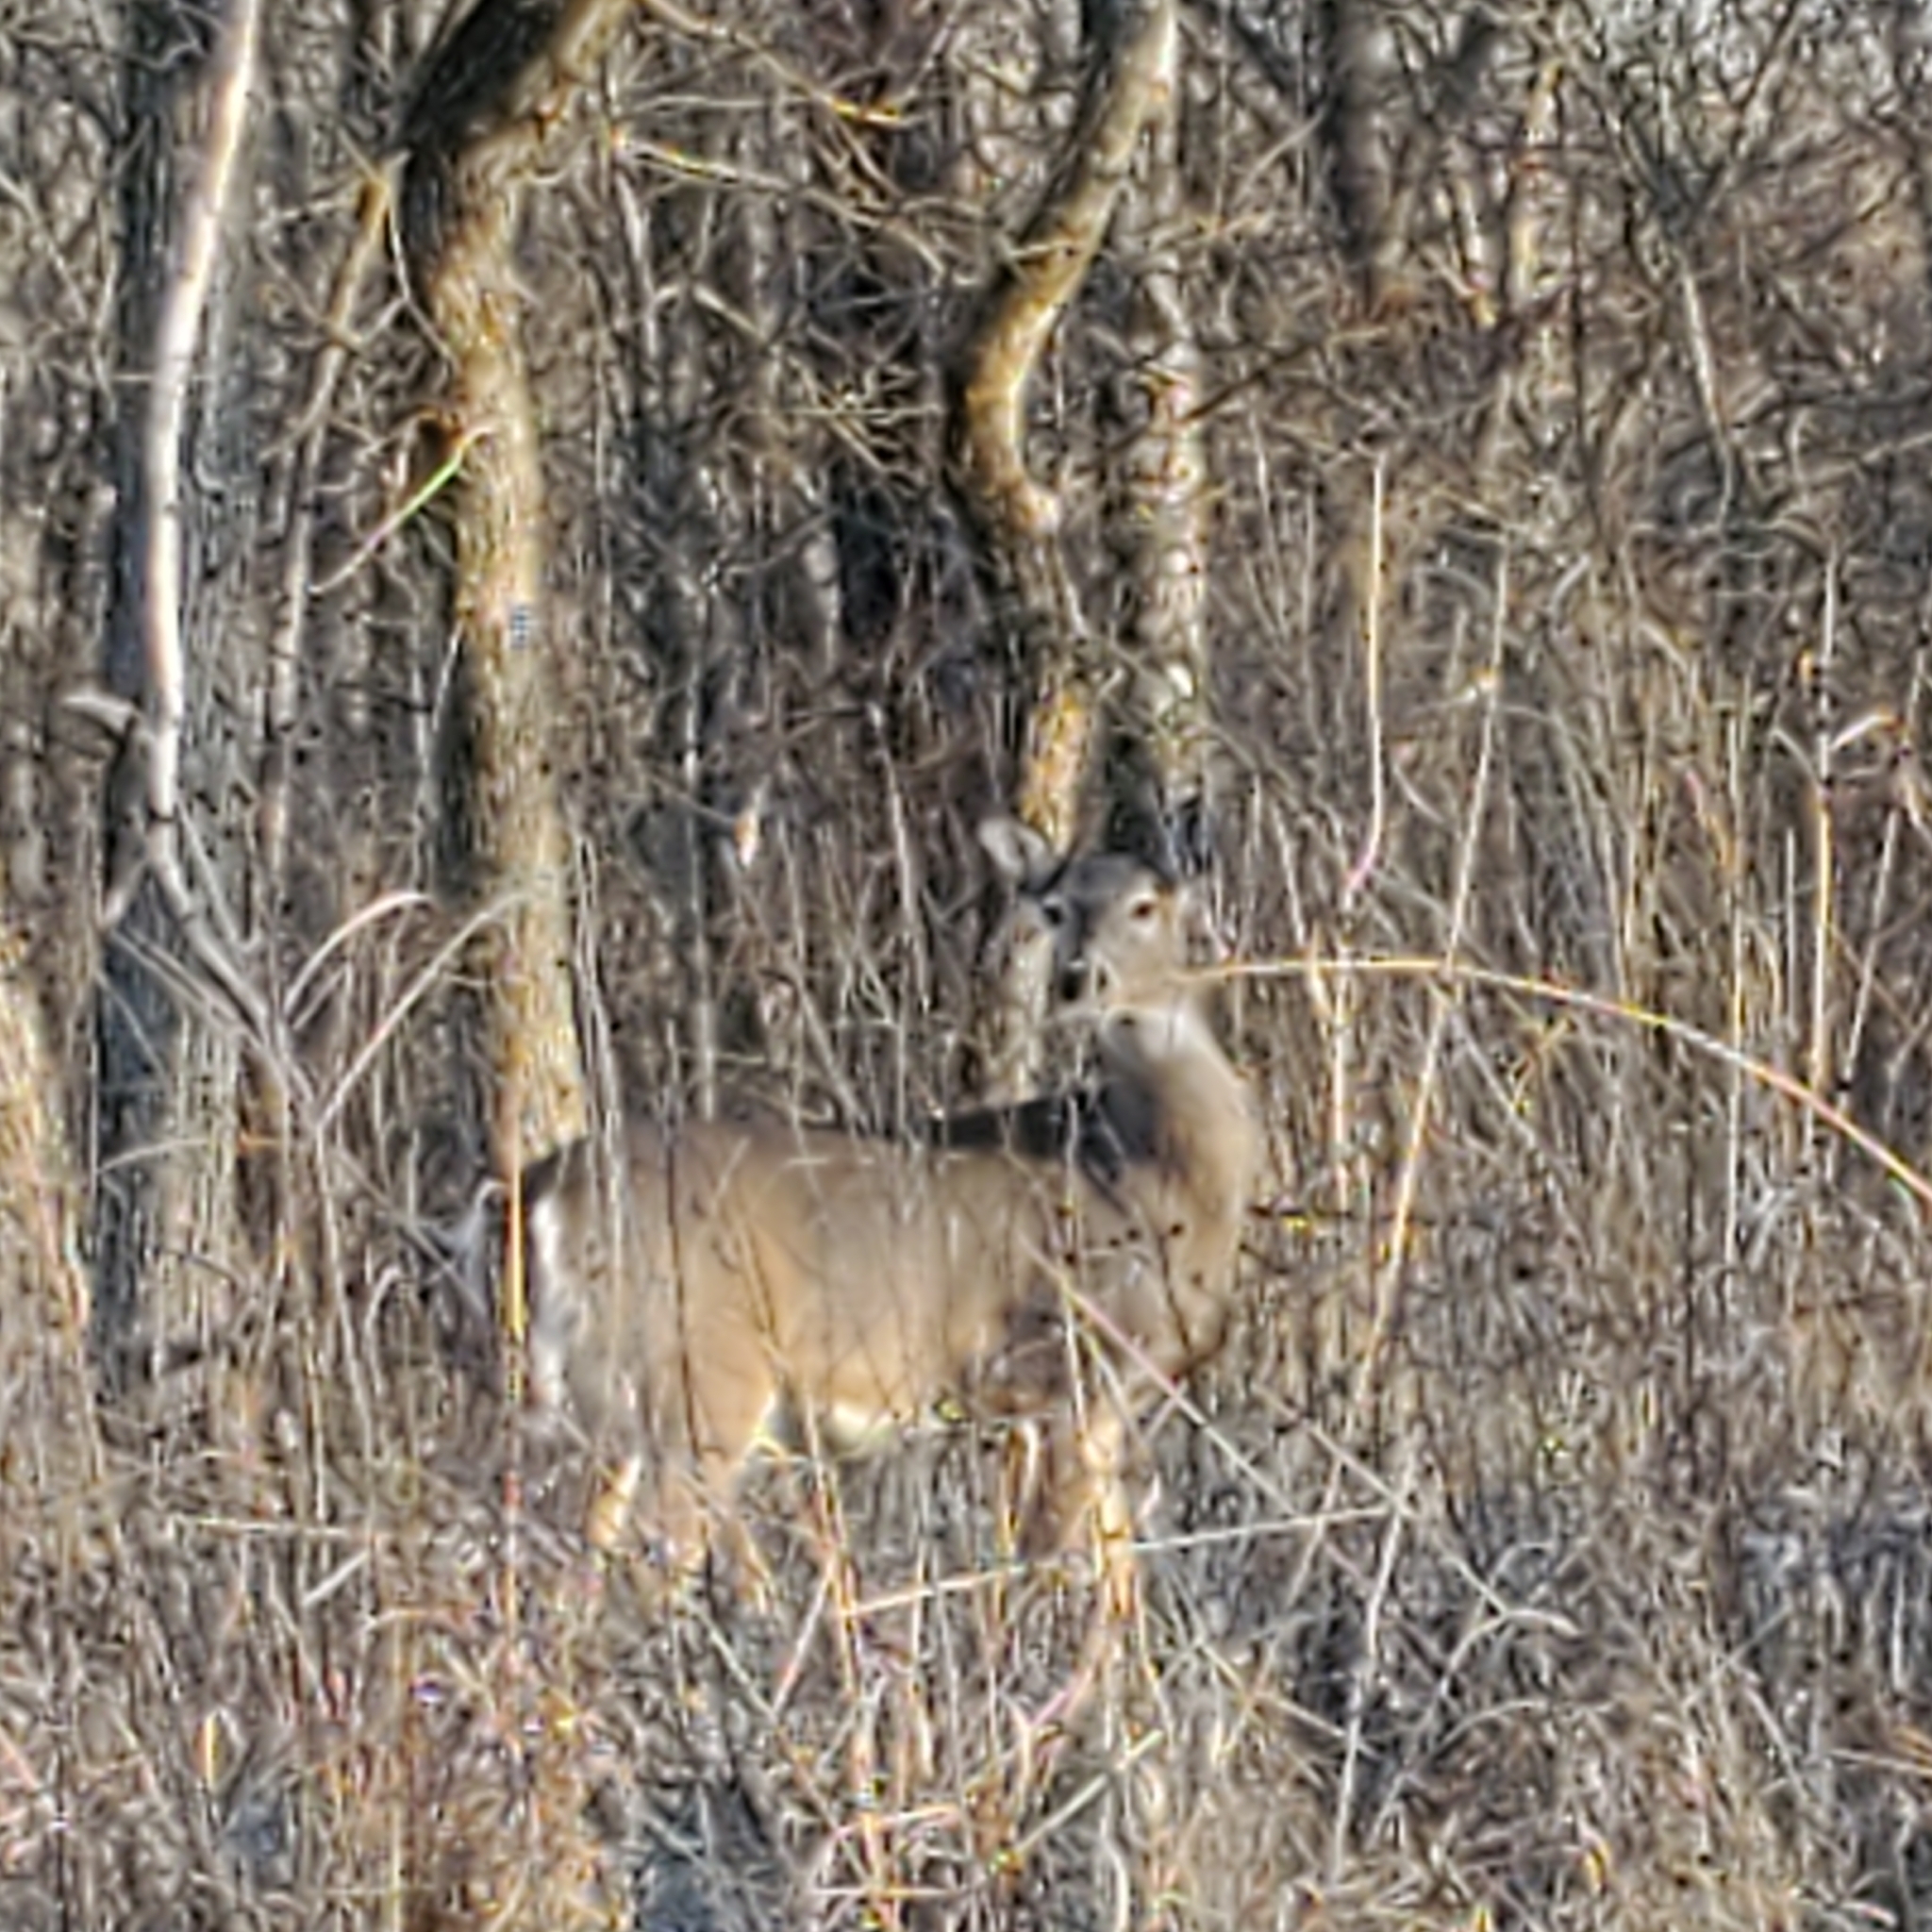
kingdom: Animalia
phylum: Chordata
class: Mammalia
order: Artiodactyla
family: Cervidae
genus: Odocoileus
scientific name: Odocoileus virginianus
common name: White-tailed deer
